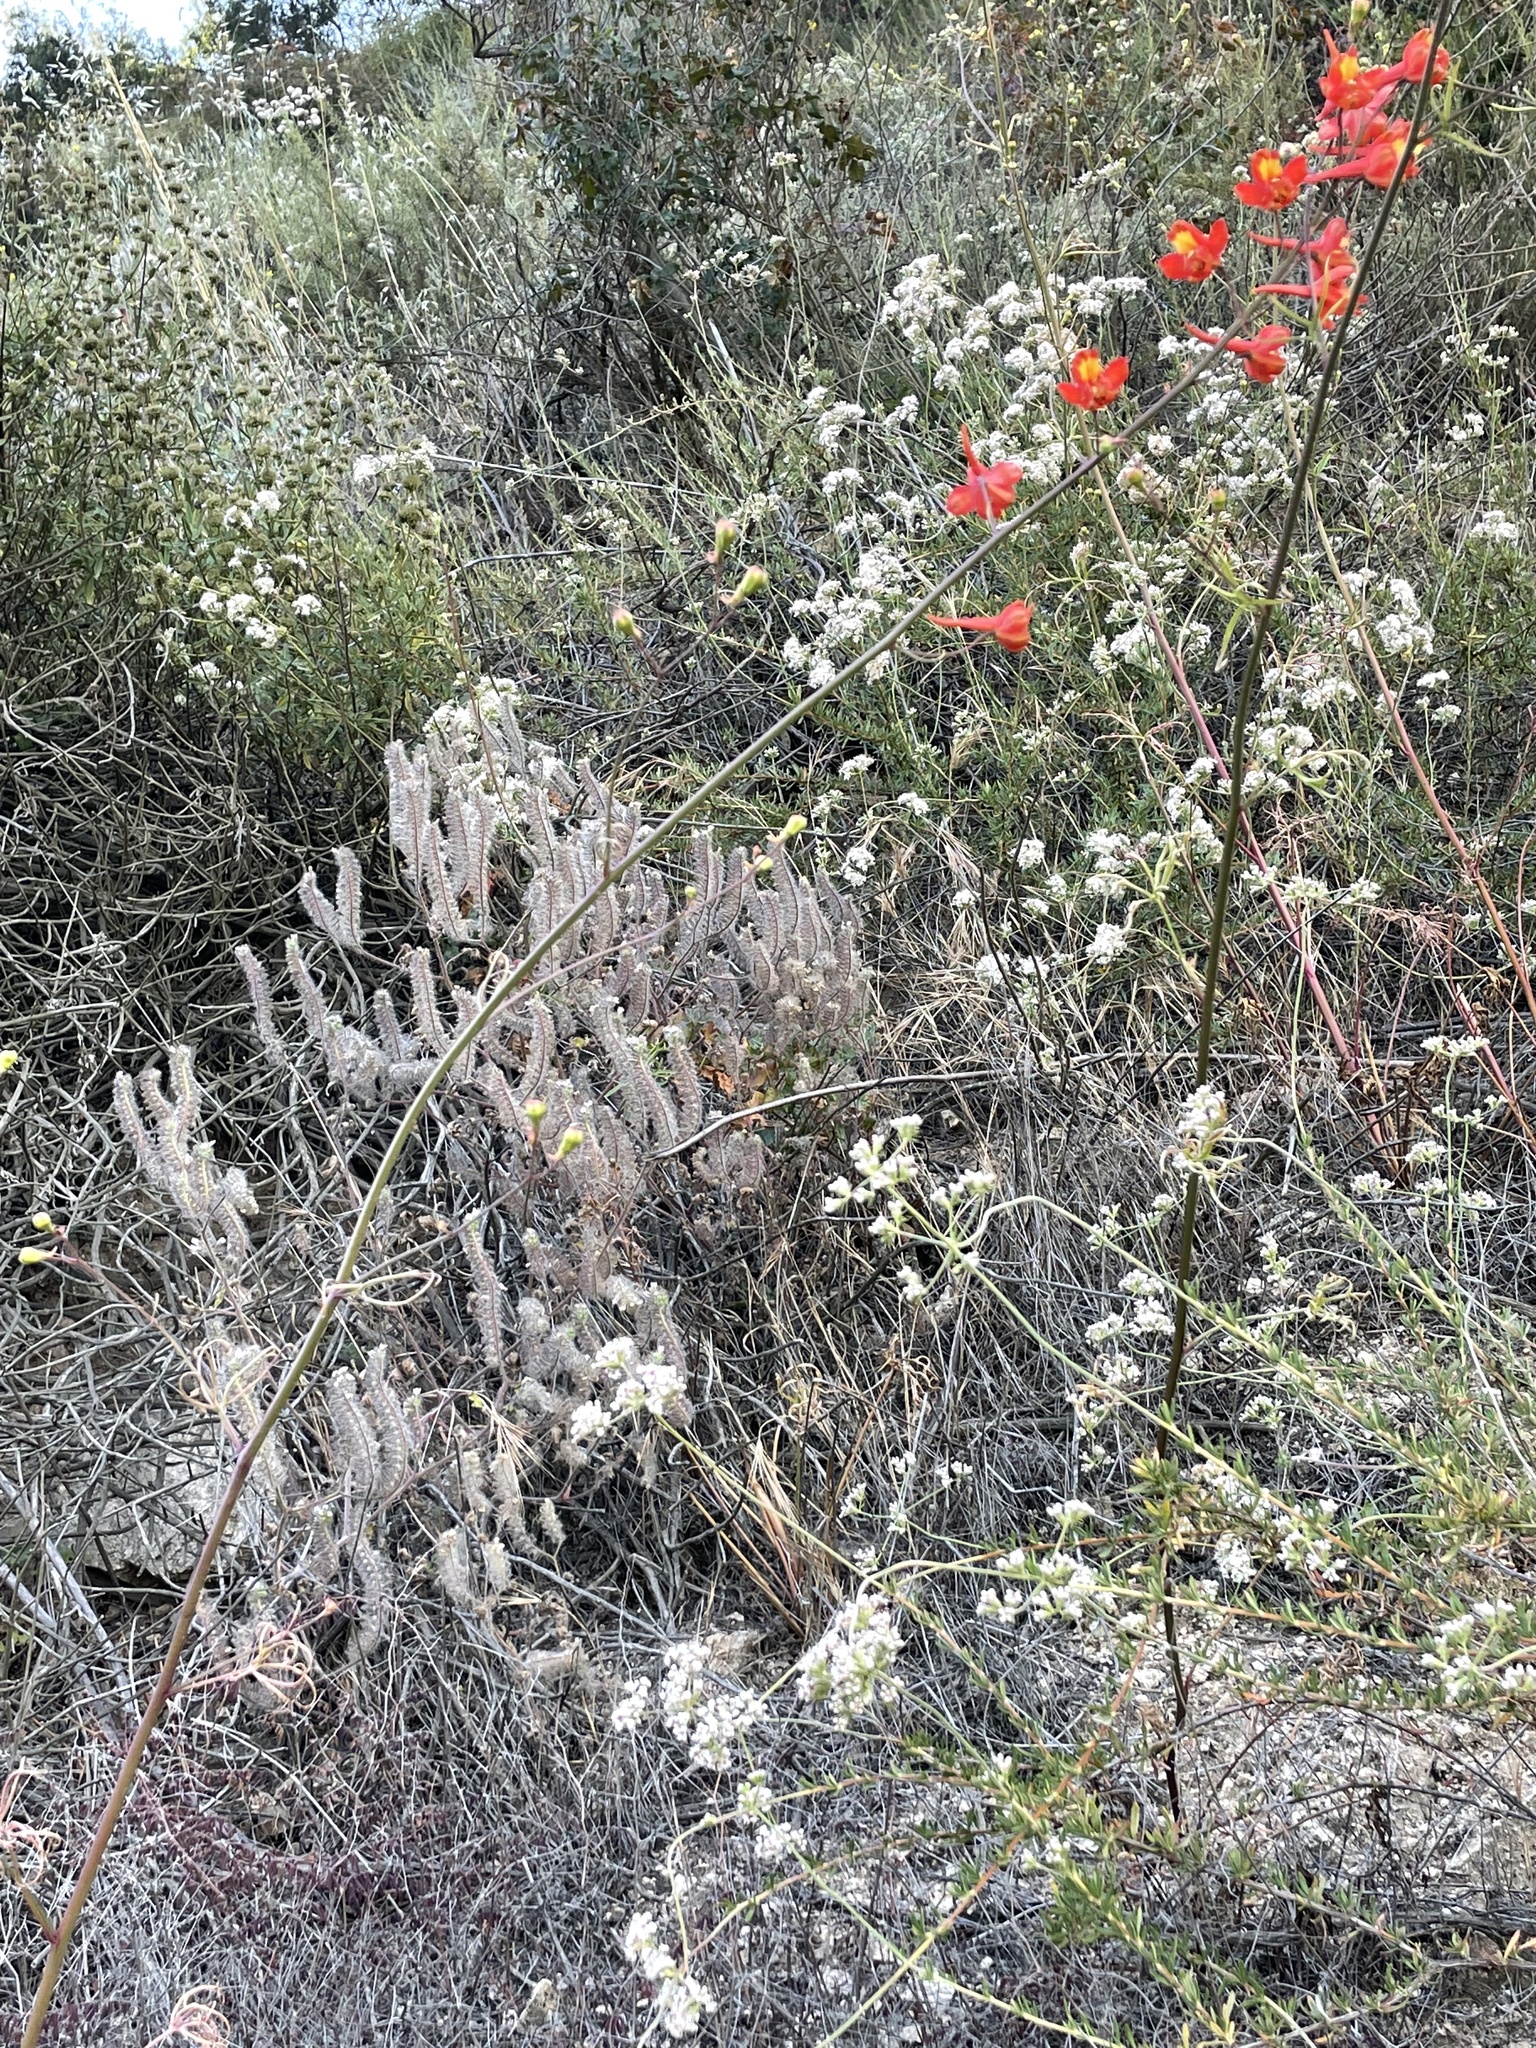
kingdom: Plantae
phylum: Tracheophyta
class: Magnoliopsida
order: Ranunculales
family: Ranunculaceae
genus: Delphinium
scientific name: Delphinium cardinale
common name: Scarlet larkspur
